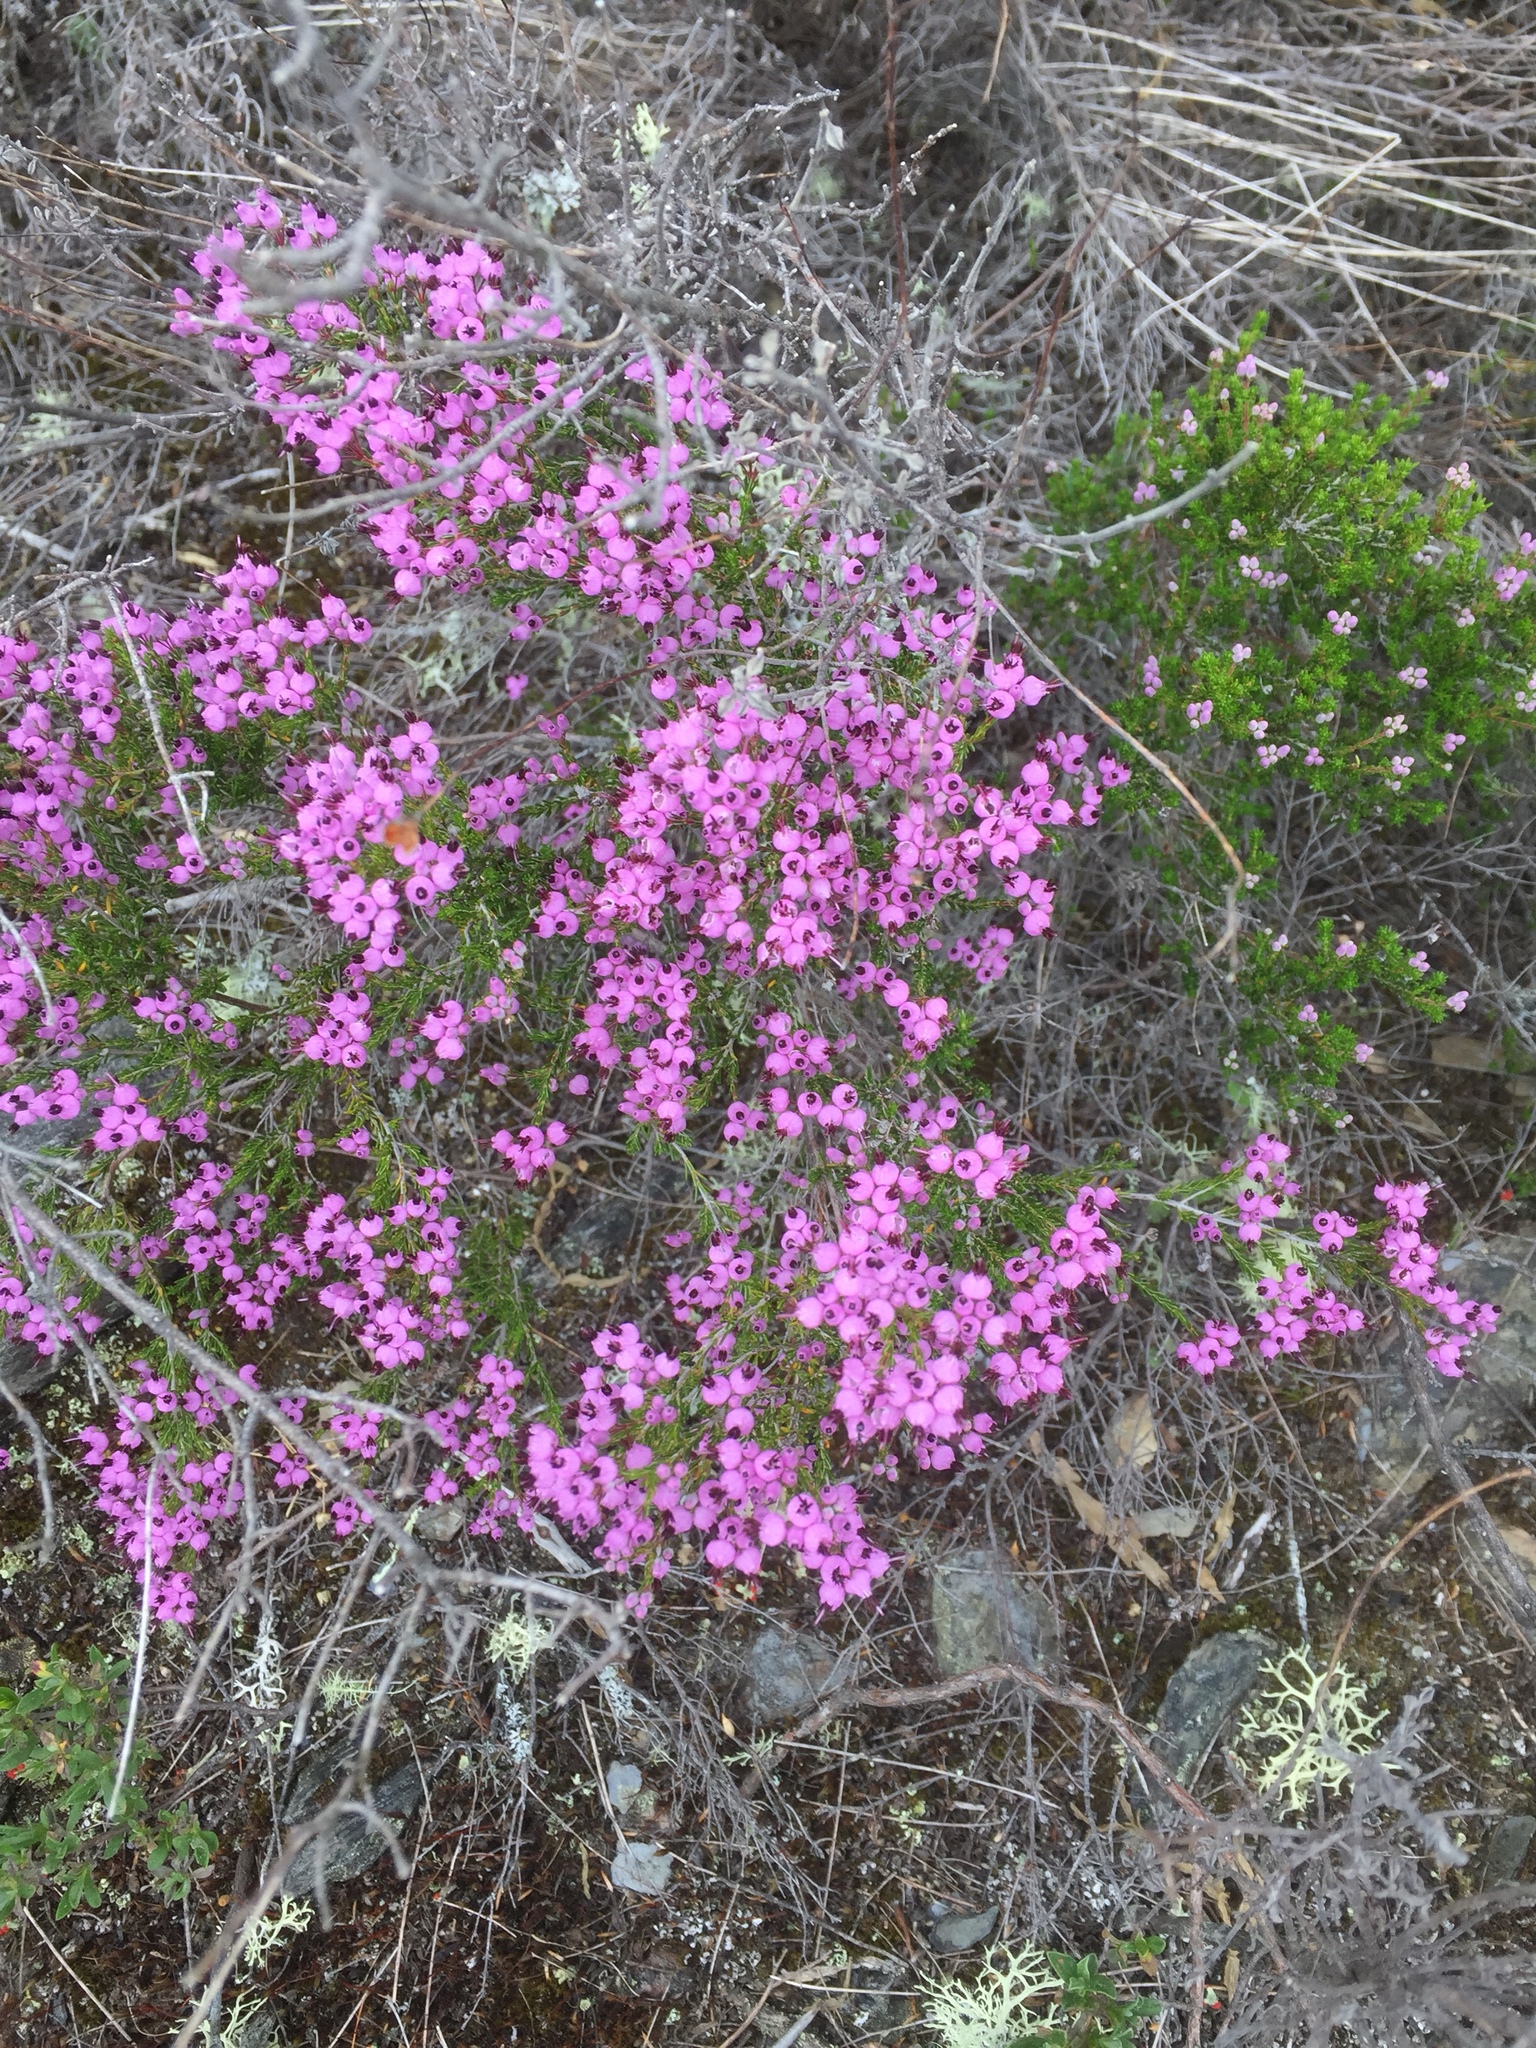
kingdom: Plantae
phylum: Tracheophyta
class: Magnoliopsida
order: Ericales
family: Ericaceae
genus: Erica
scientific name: Erica umbellata
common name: Dwarf spanish heath
